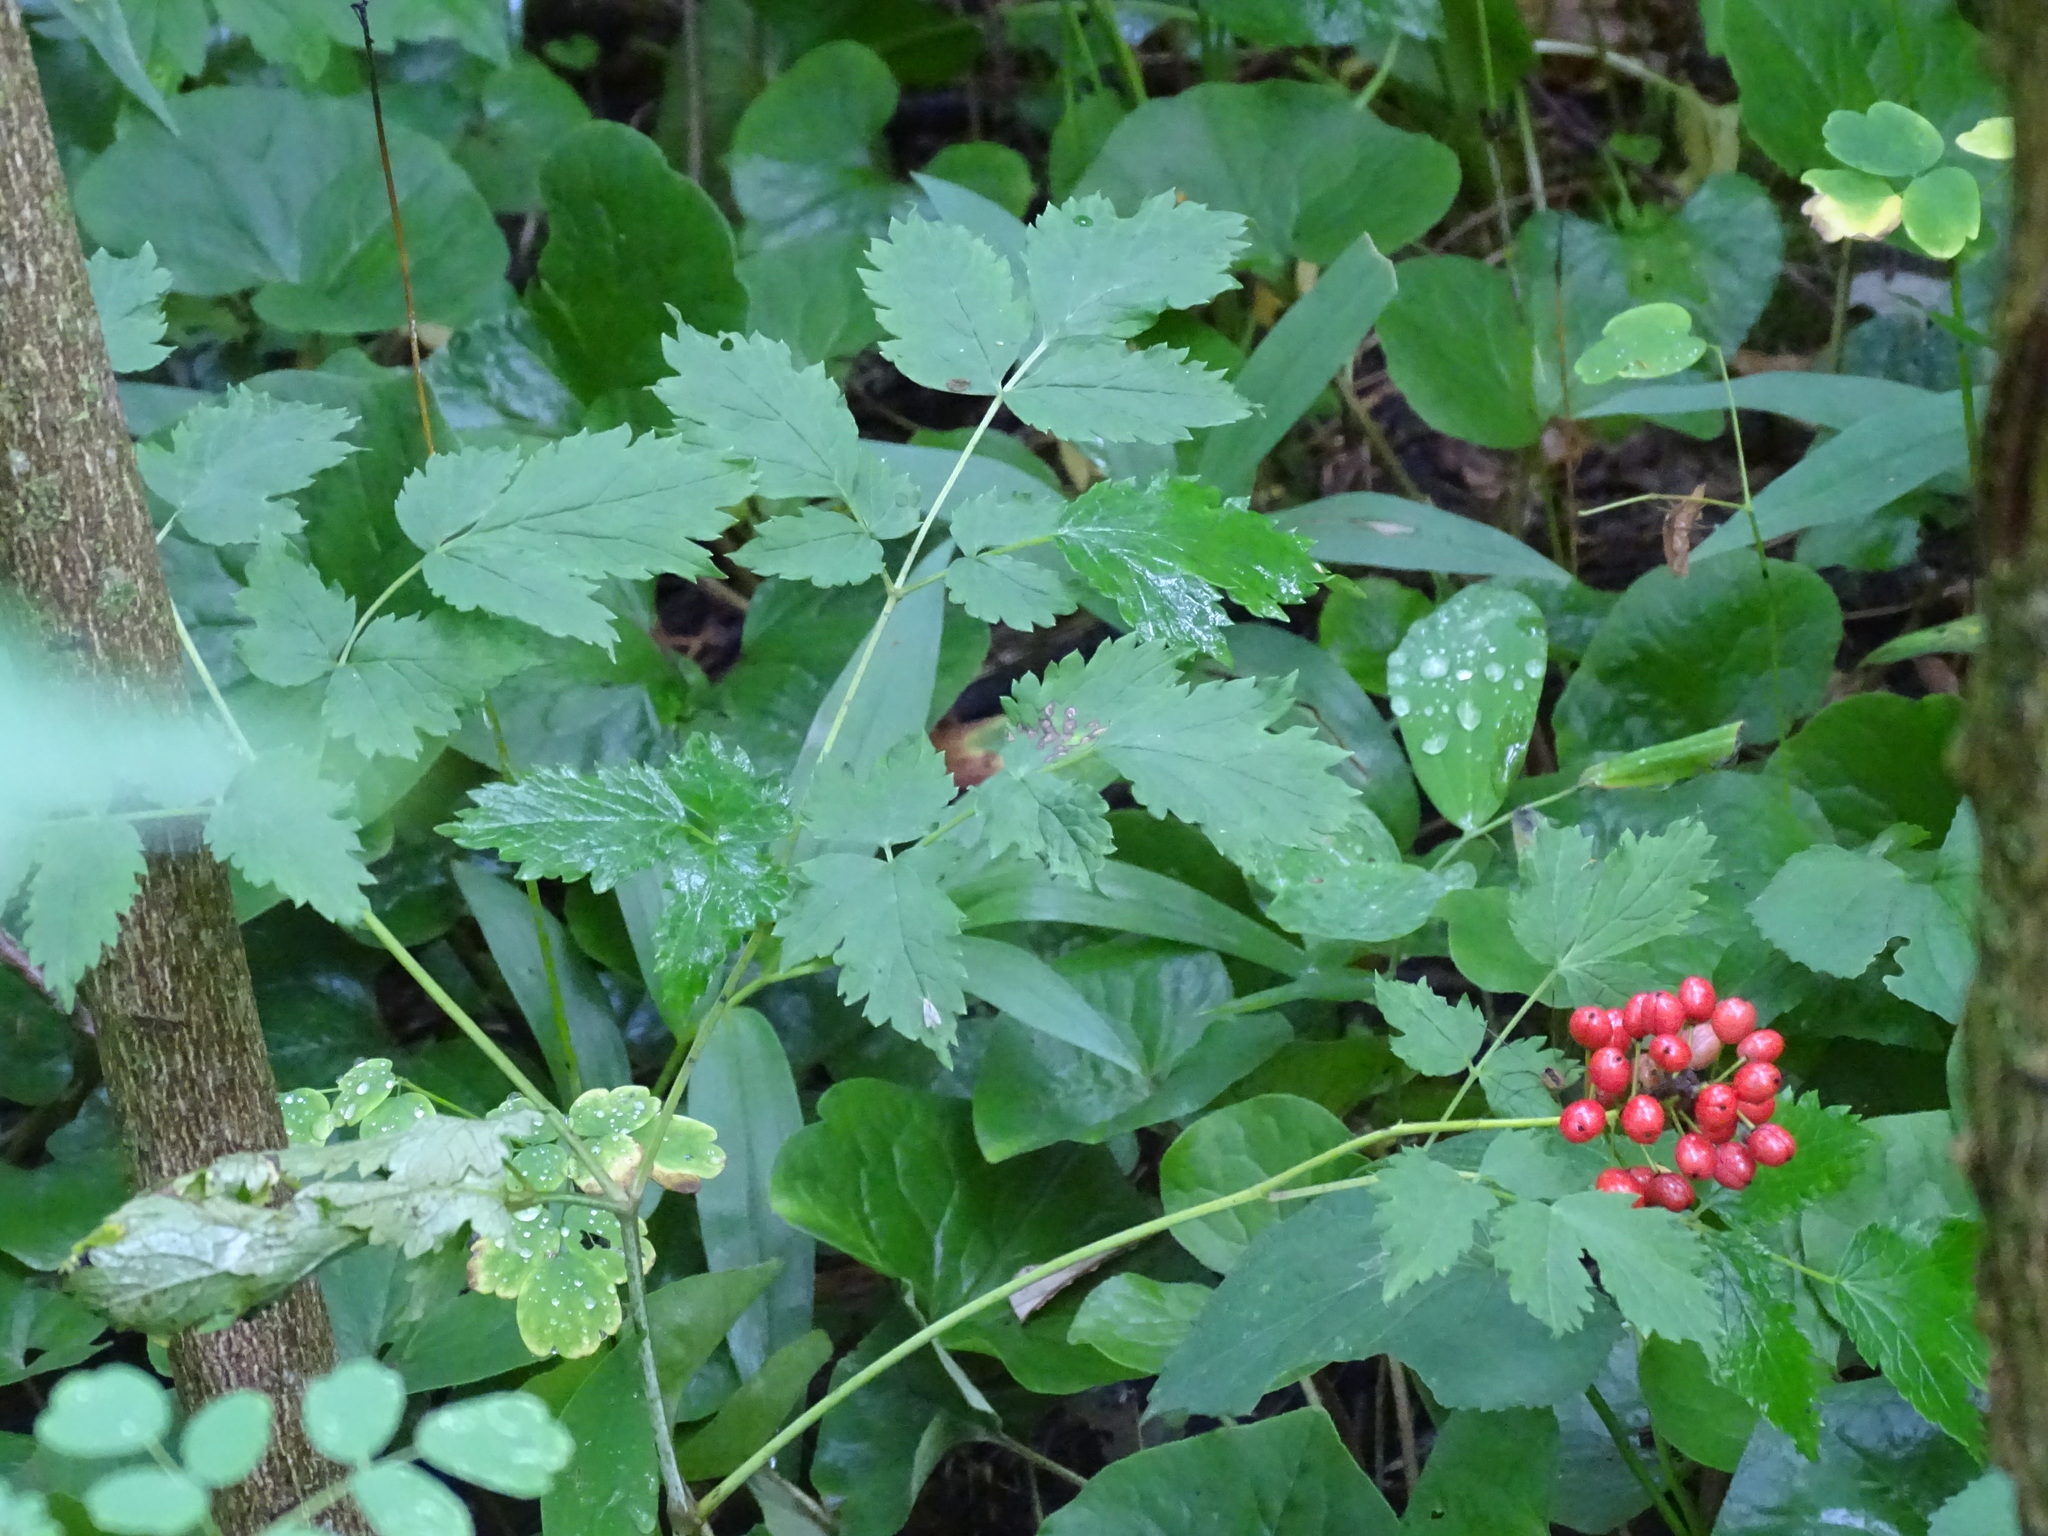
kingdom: Plantae
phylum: Tracheophyta
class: Magnoliopsida
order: Ranunculales
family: Ranunculaceae
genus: Actaea
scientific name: Actaea rubra
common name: Red baneberry
